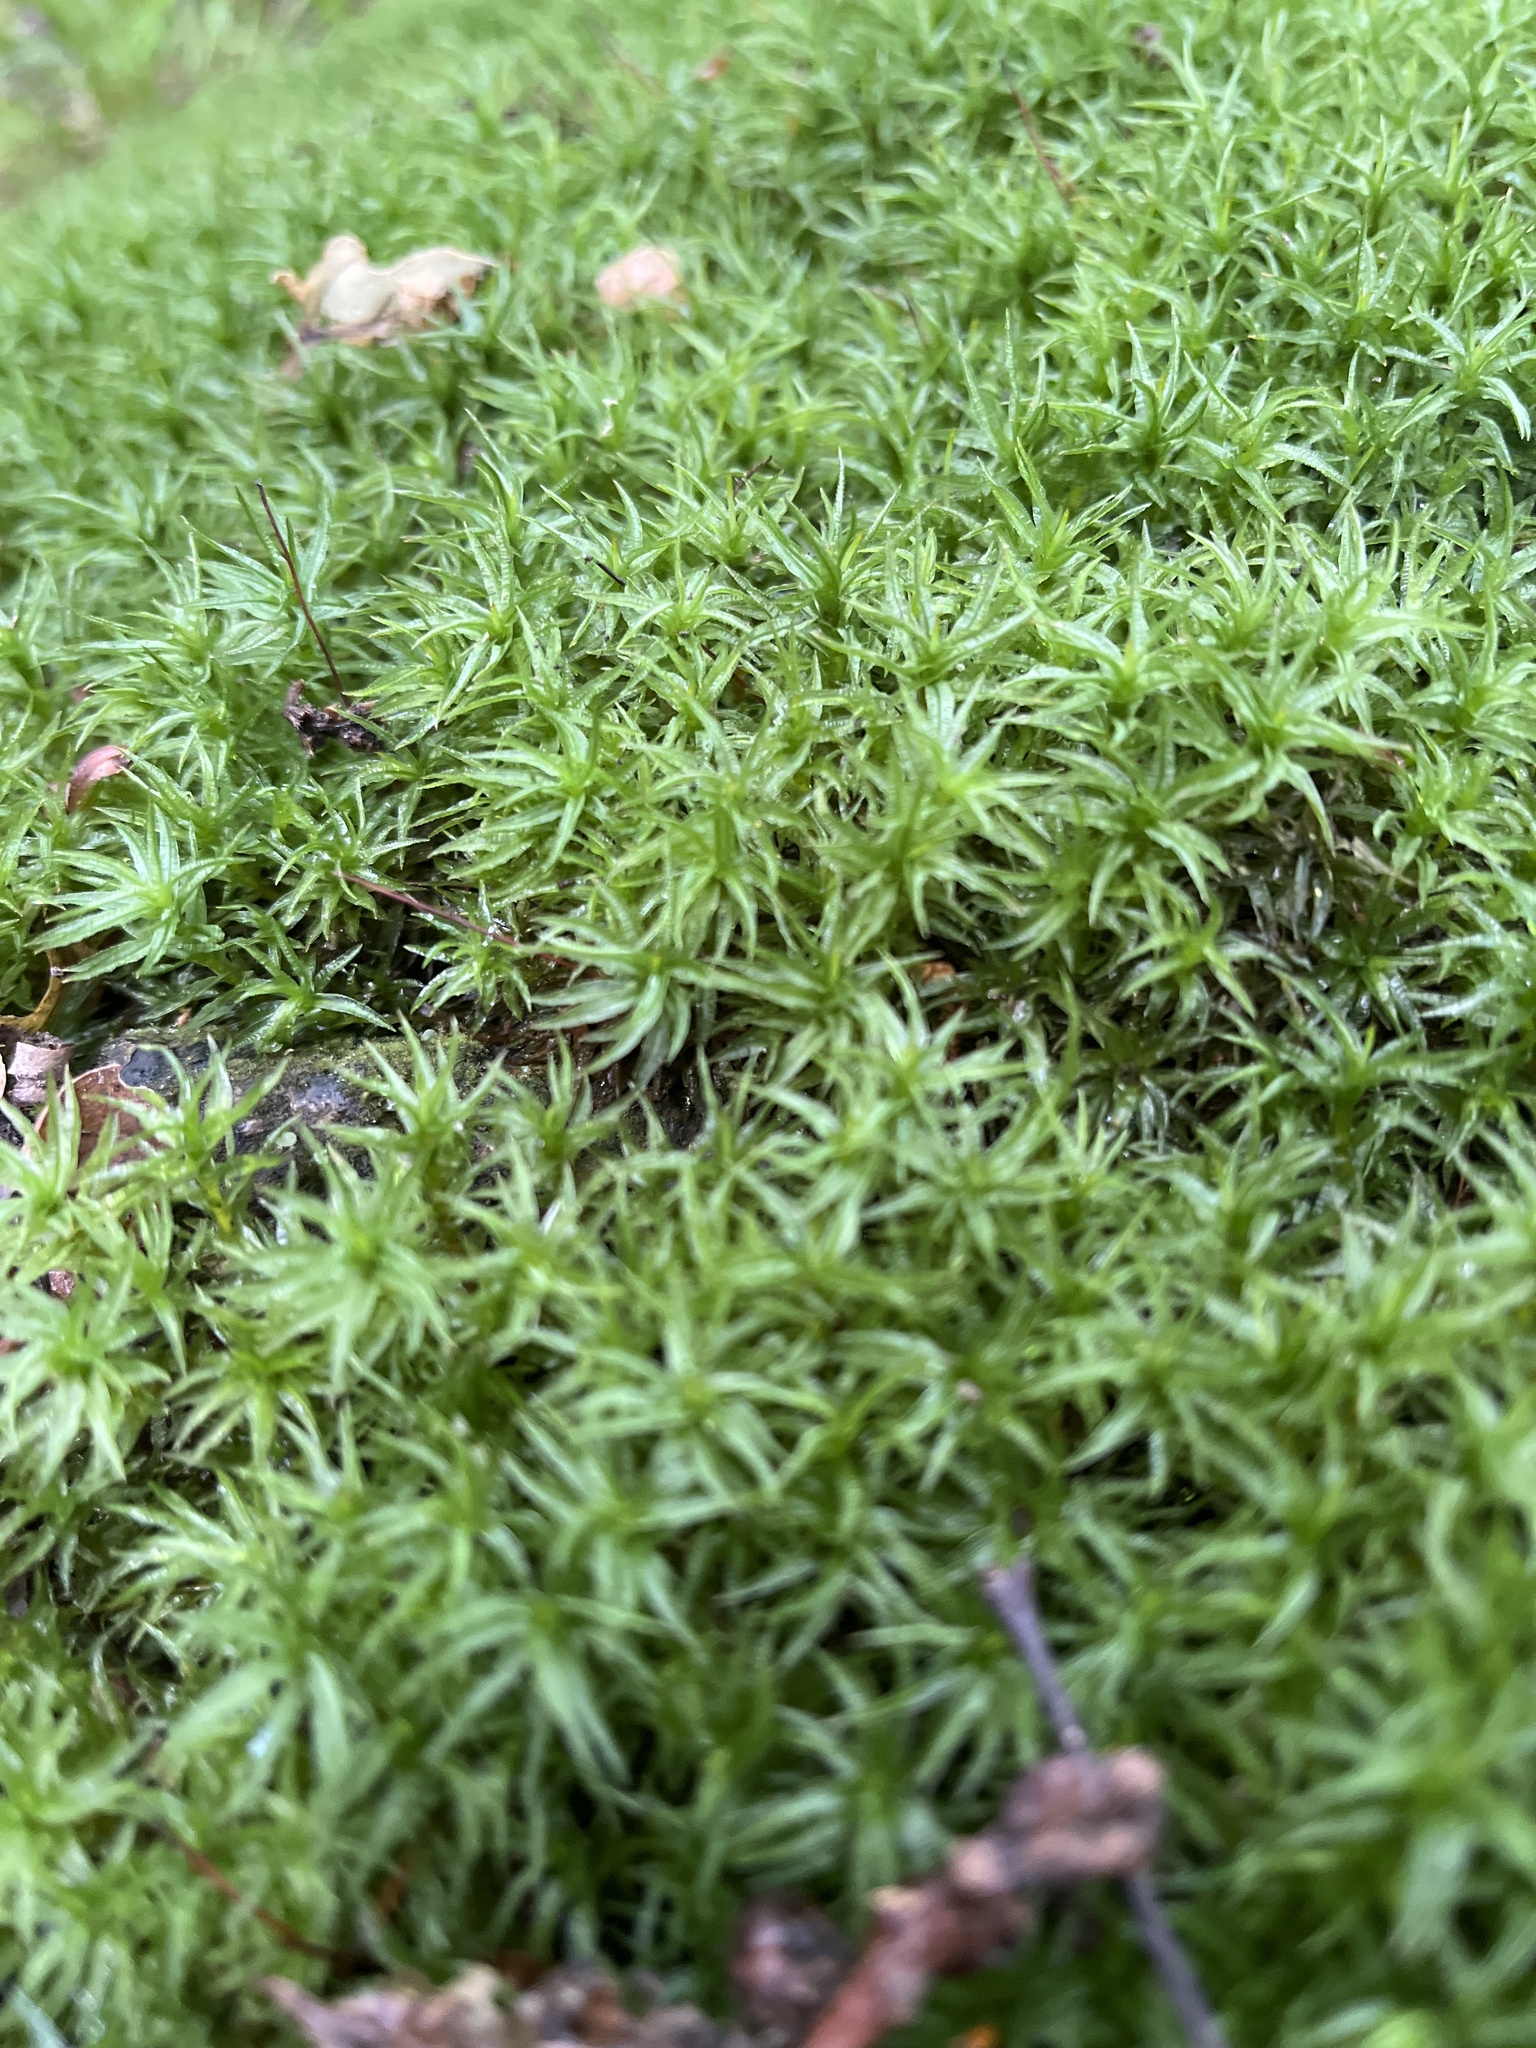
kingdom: Plantae
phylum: Bryophyta
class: Polytrichopsida
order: Polytrichales
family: Polytrichaceae
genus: Atrichum
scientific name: Atrichum undulatum
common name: Common smoothcap
